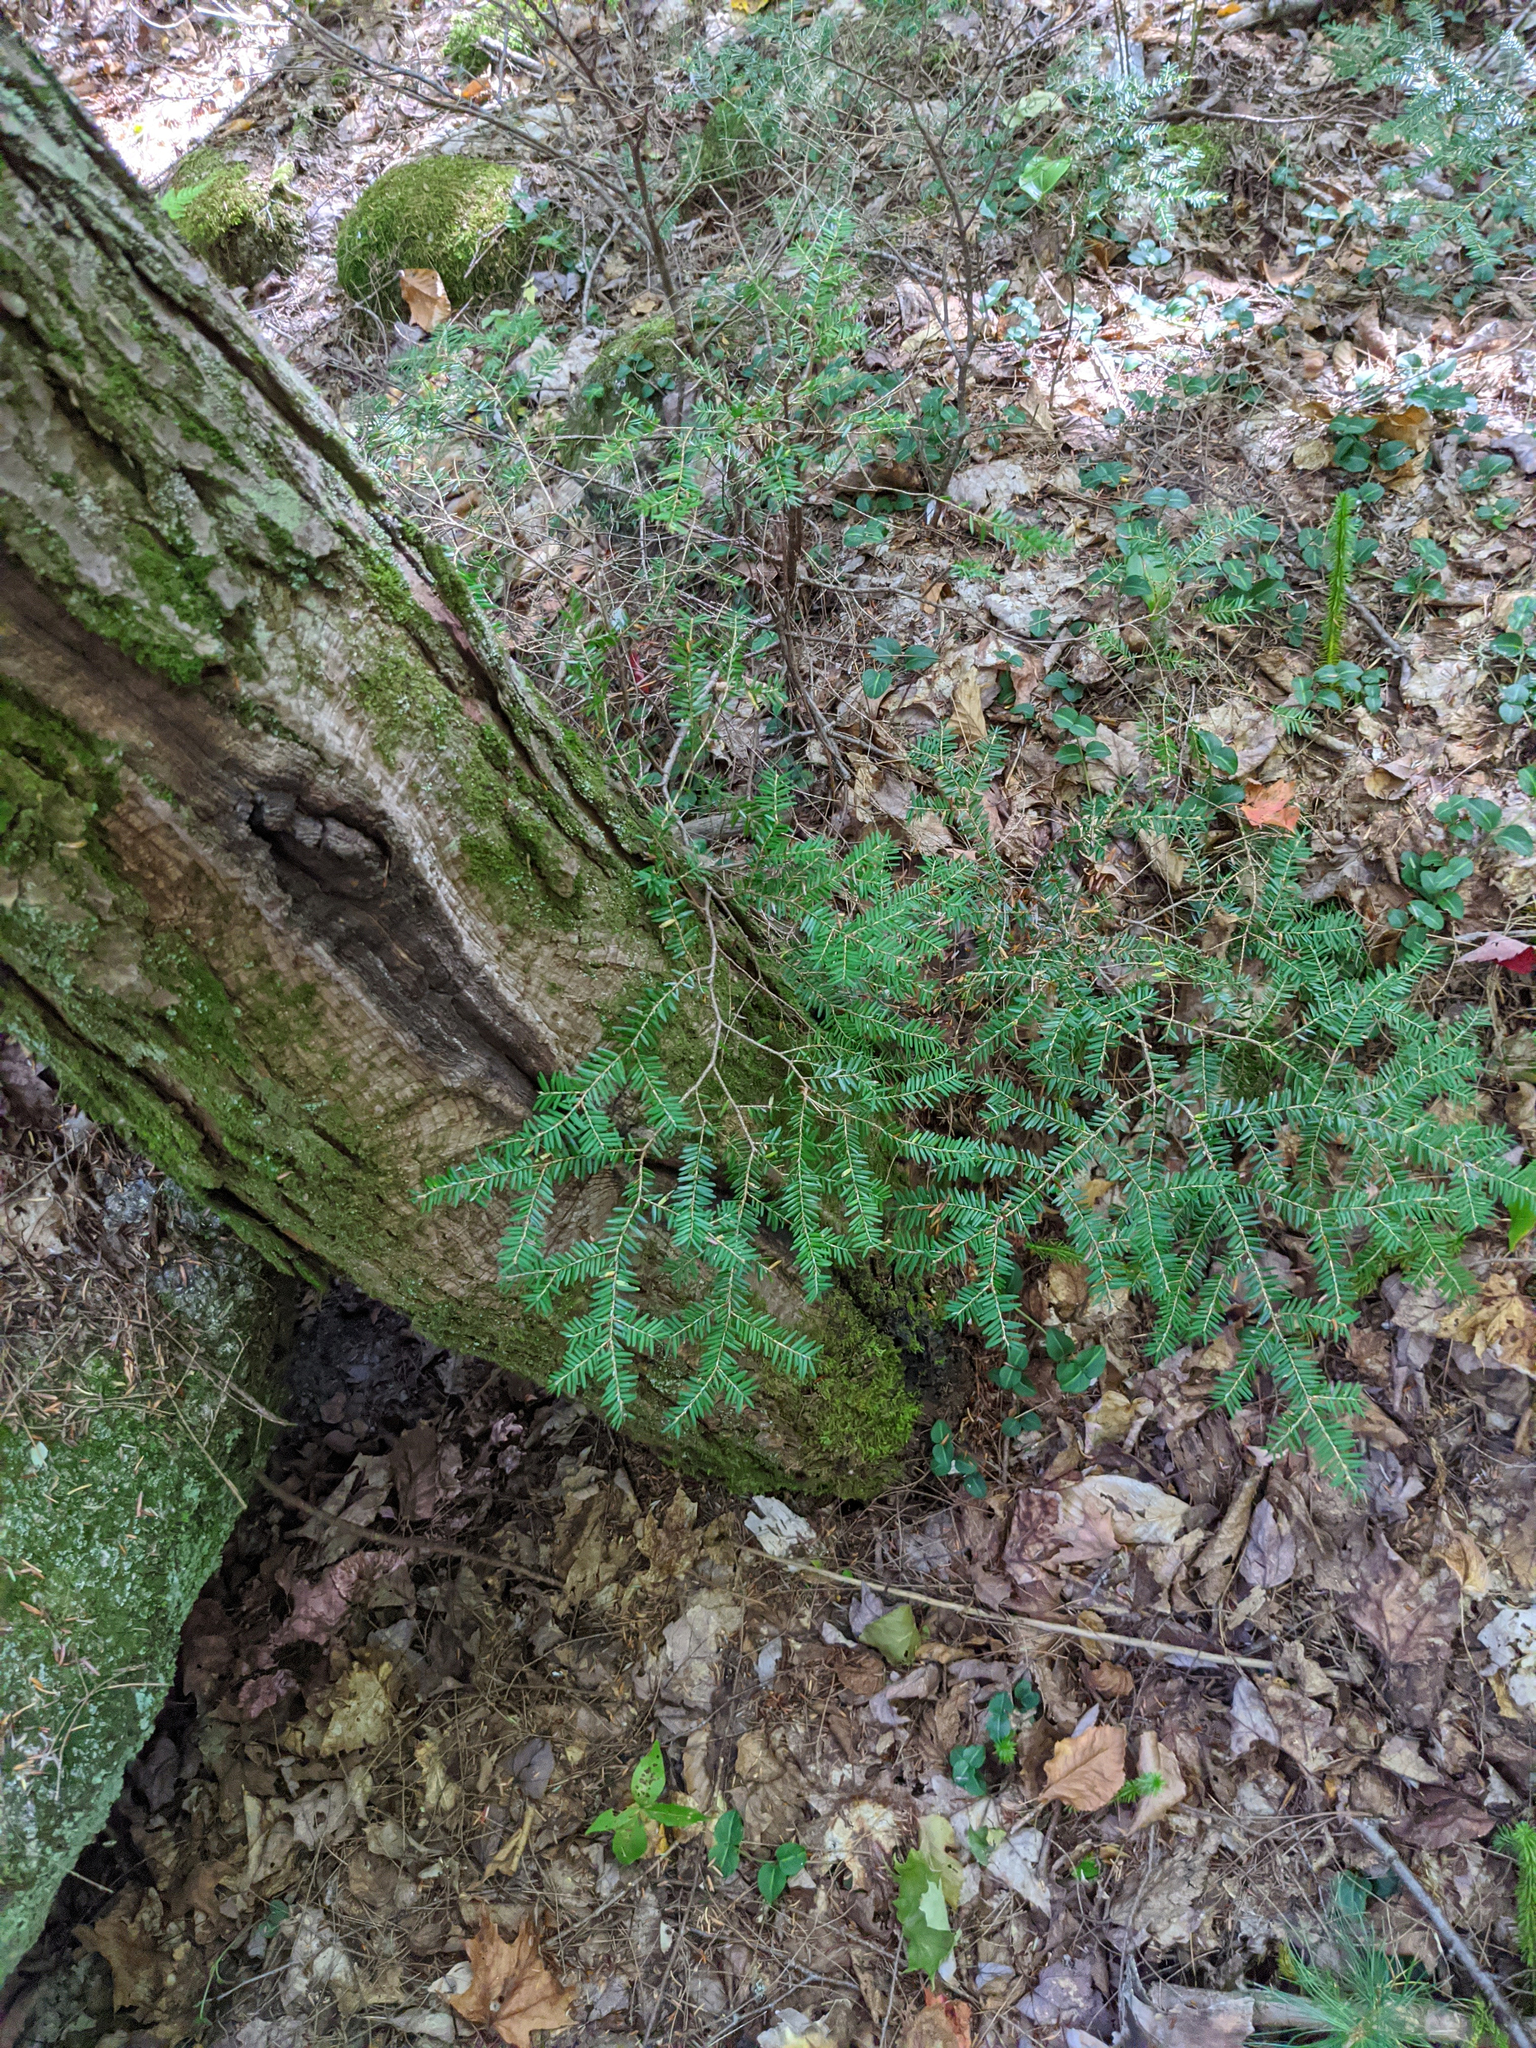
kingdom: Plantae
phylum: Tracheophyta
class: Pinopsida
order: Pinales
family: Pinaceae
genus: Tsuga
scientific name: Tsuga canadensis
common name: Eastern hemlock
